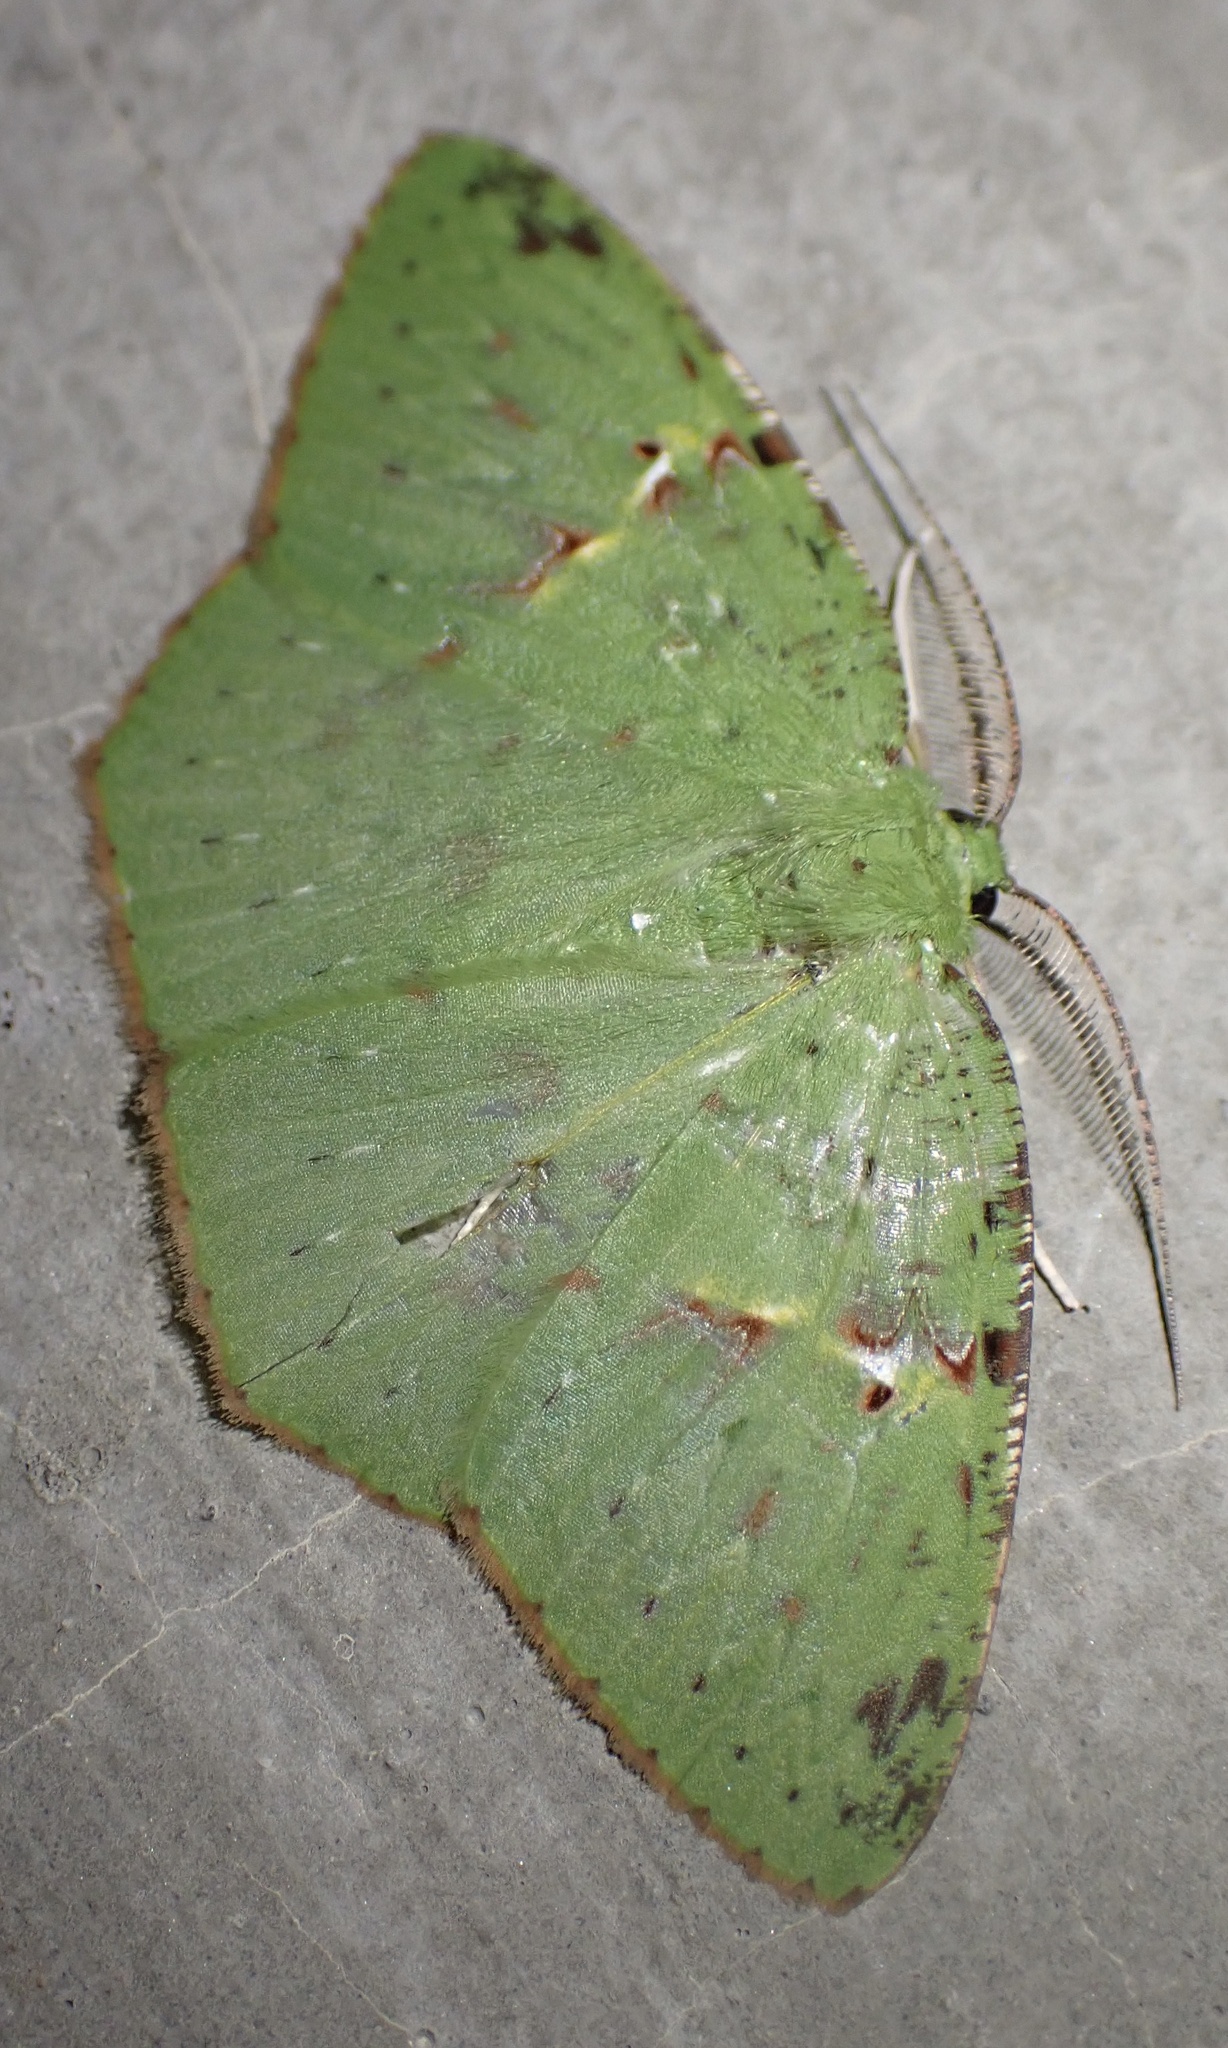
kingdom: Animalia
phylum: Arthropoda
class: Insecta
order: Lepidoptera
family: Geometridae
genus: Strepsichlora
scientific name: Strepsichlora remissa
